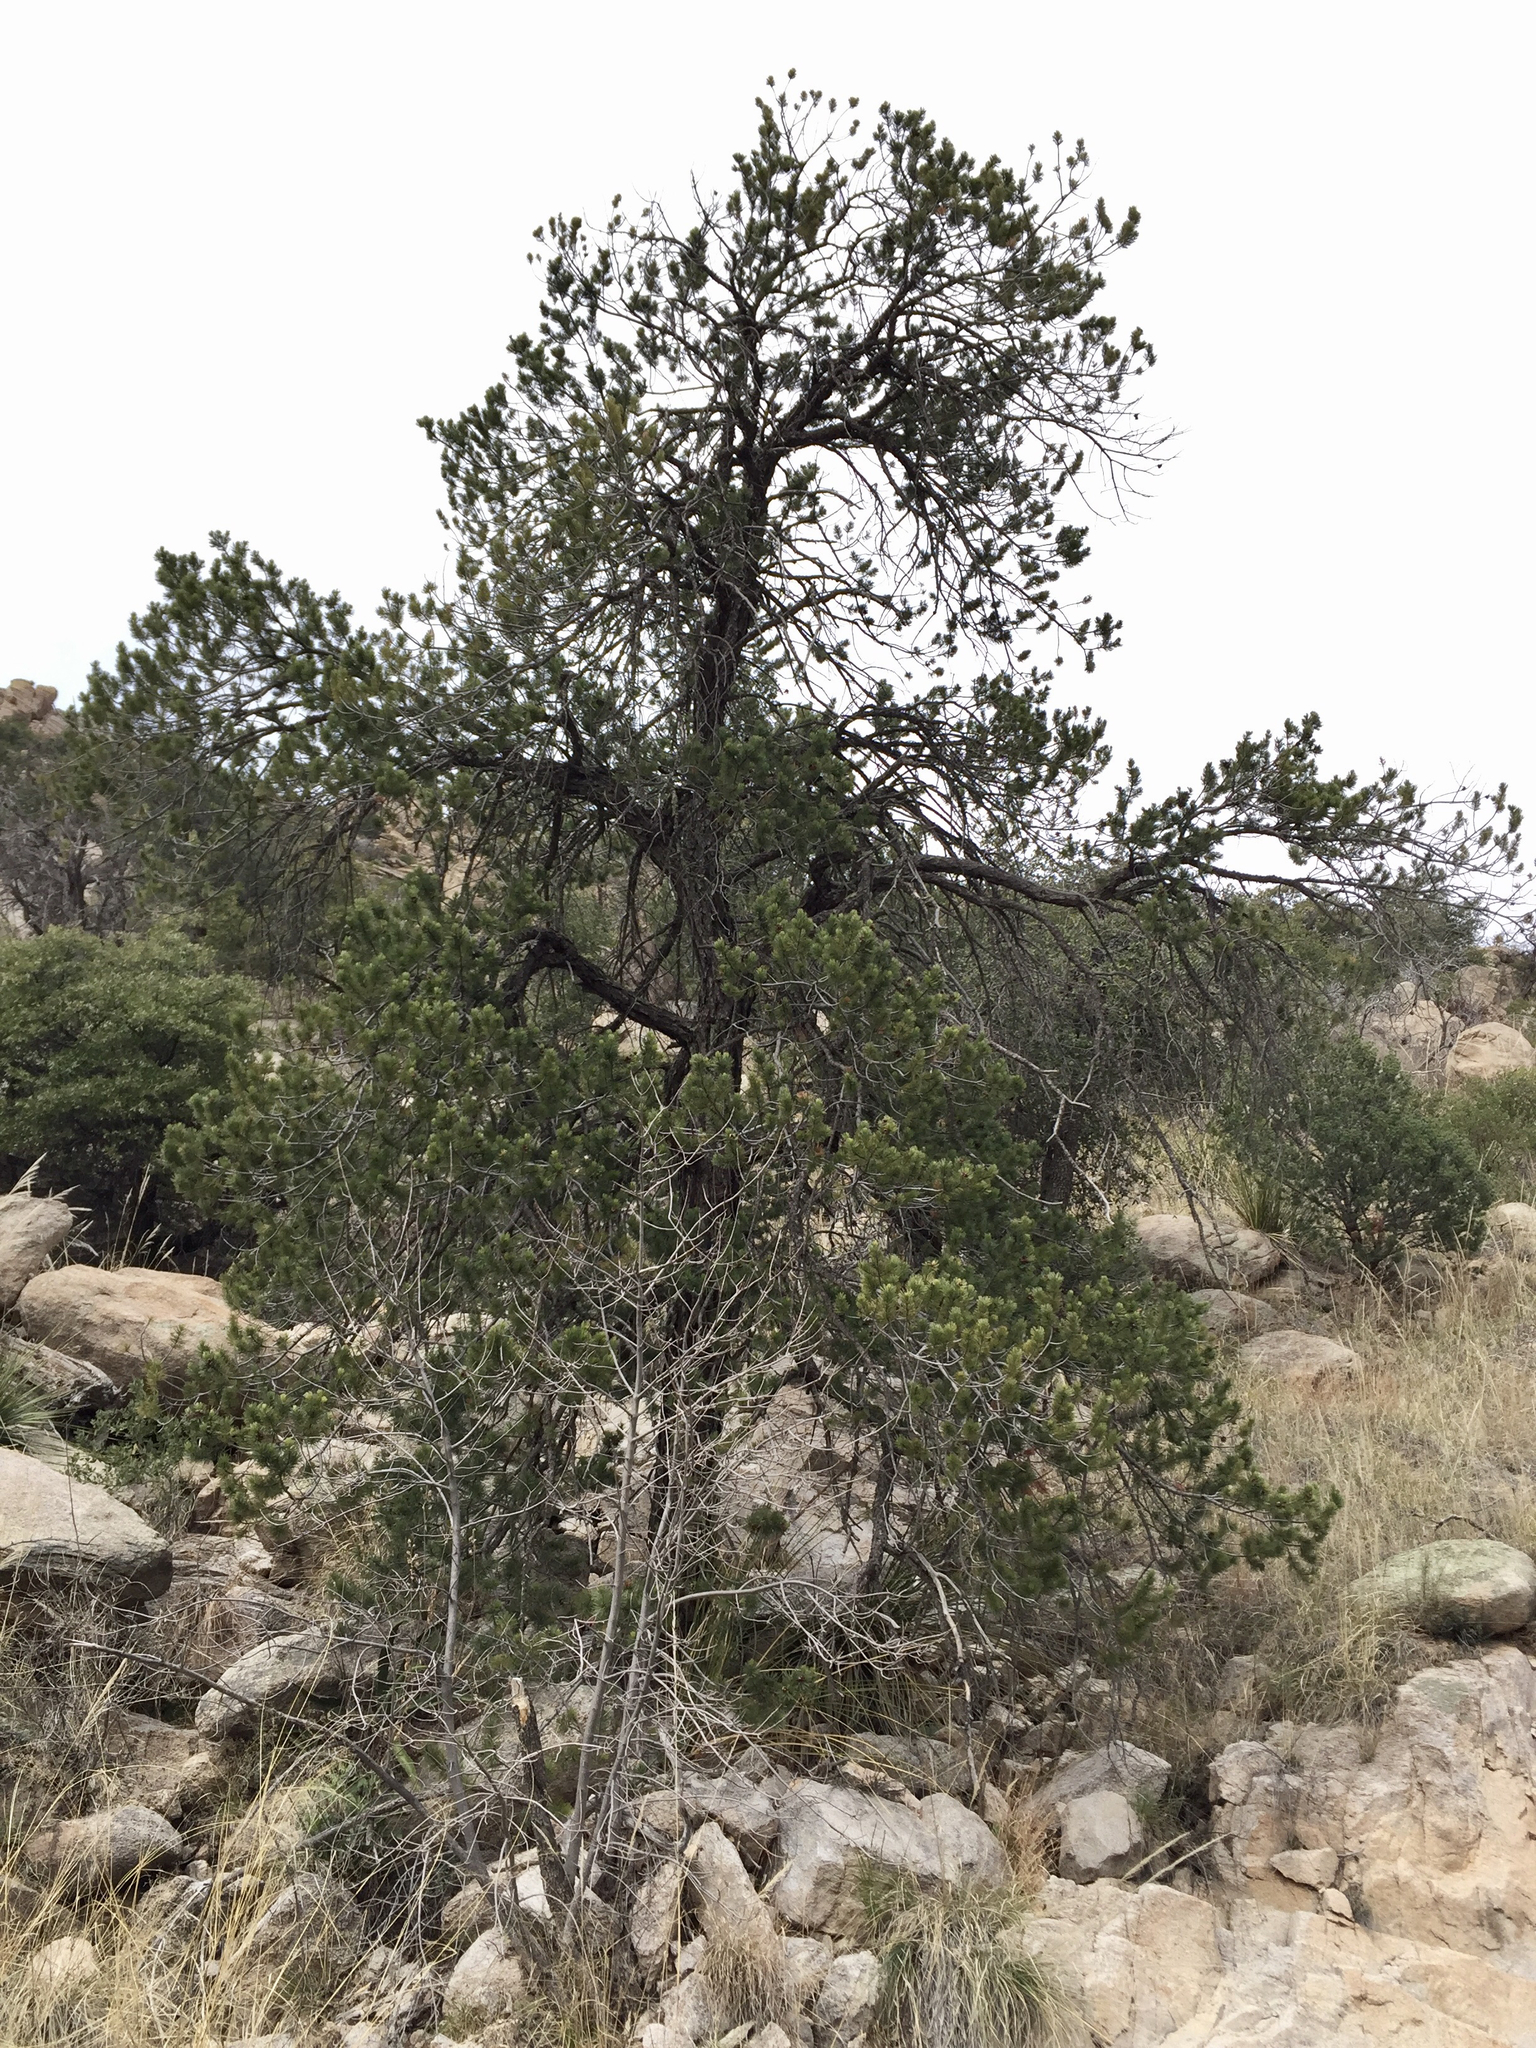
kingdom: Plantae
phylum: Tracheophyta
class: Pinopsida
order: Pinales
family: Pinaceae
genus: Pinus
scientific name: Pinus discolor
